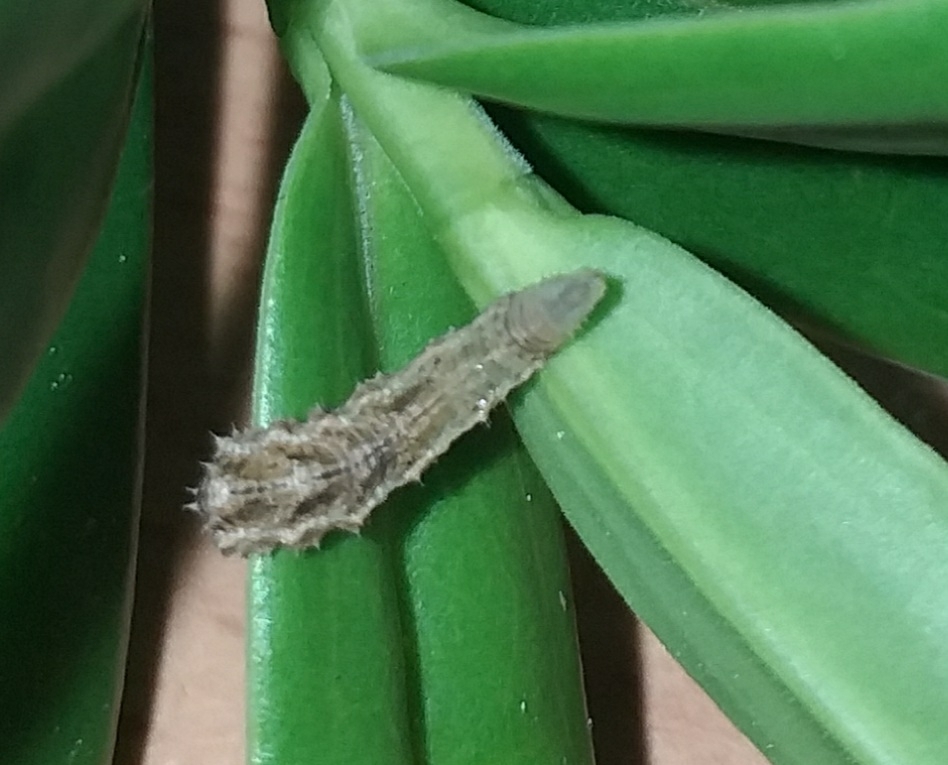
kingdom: Animalia
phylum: Arthropoda
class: Insecta
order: Diptera
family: Syrphidae
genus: Eupeodes
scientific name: Eupeodes
